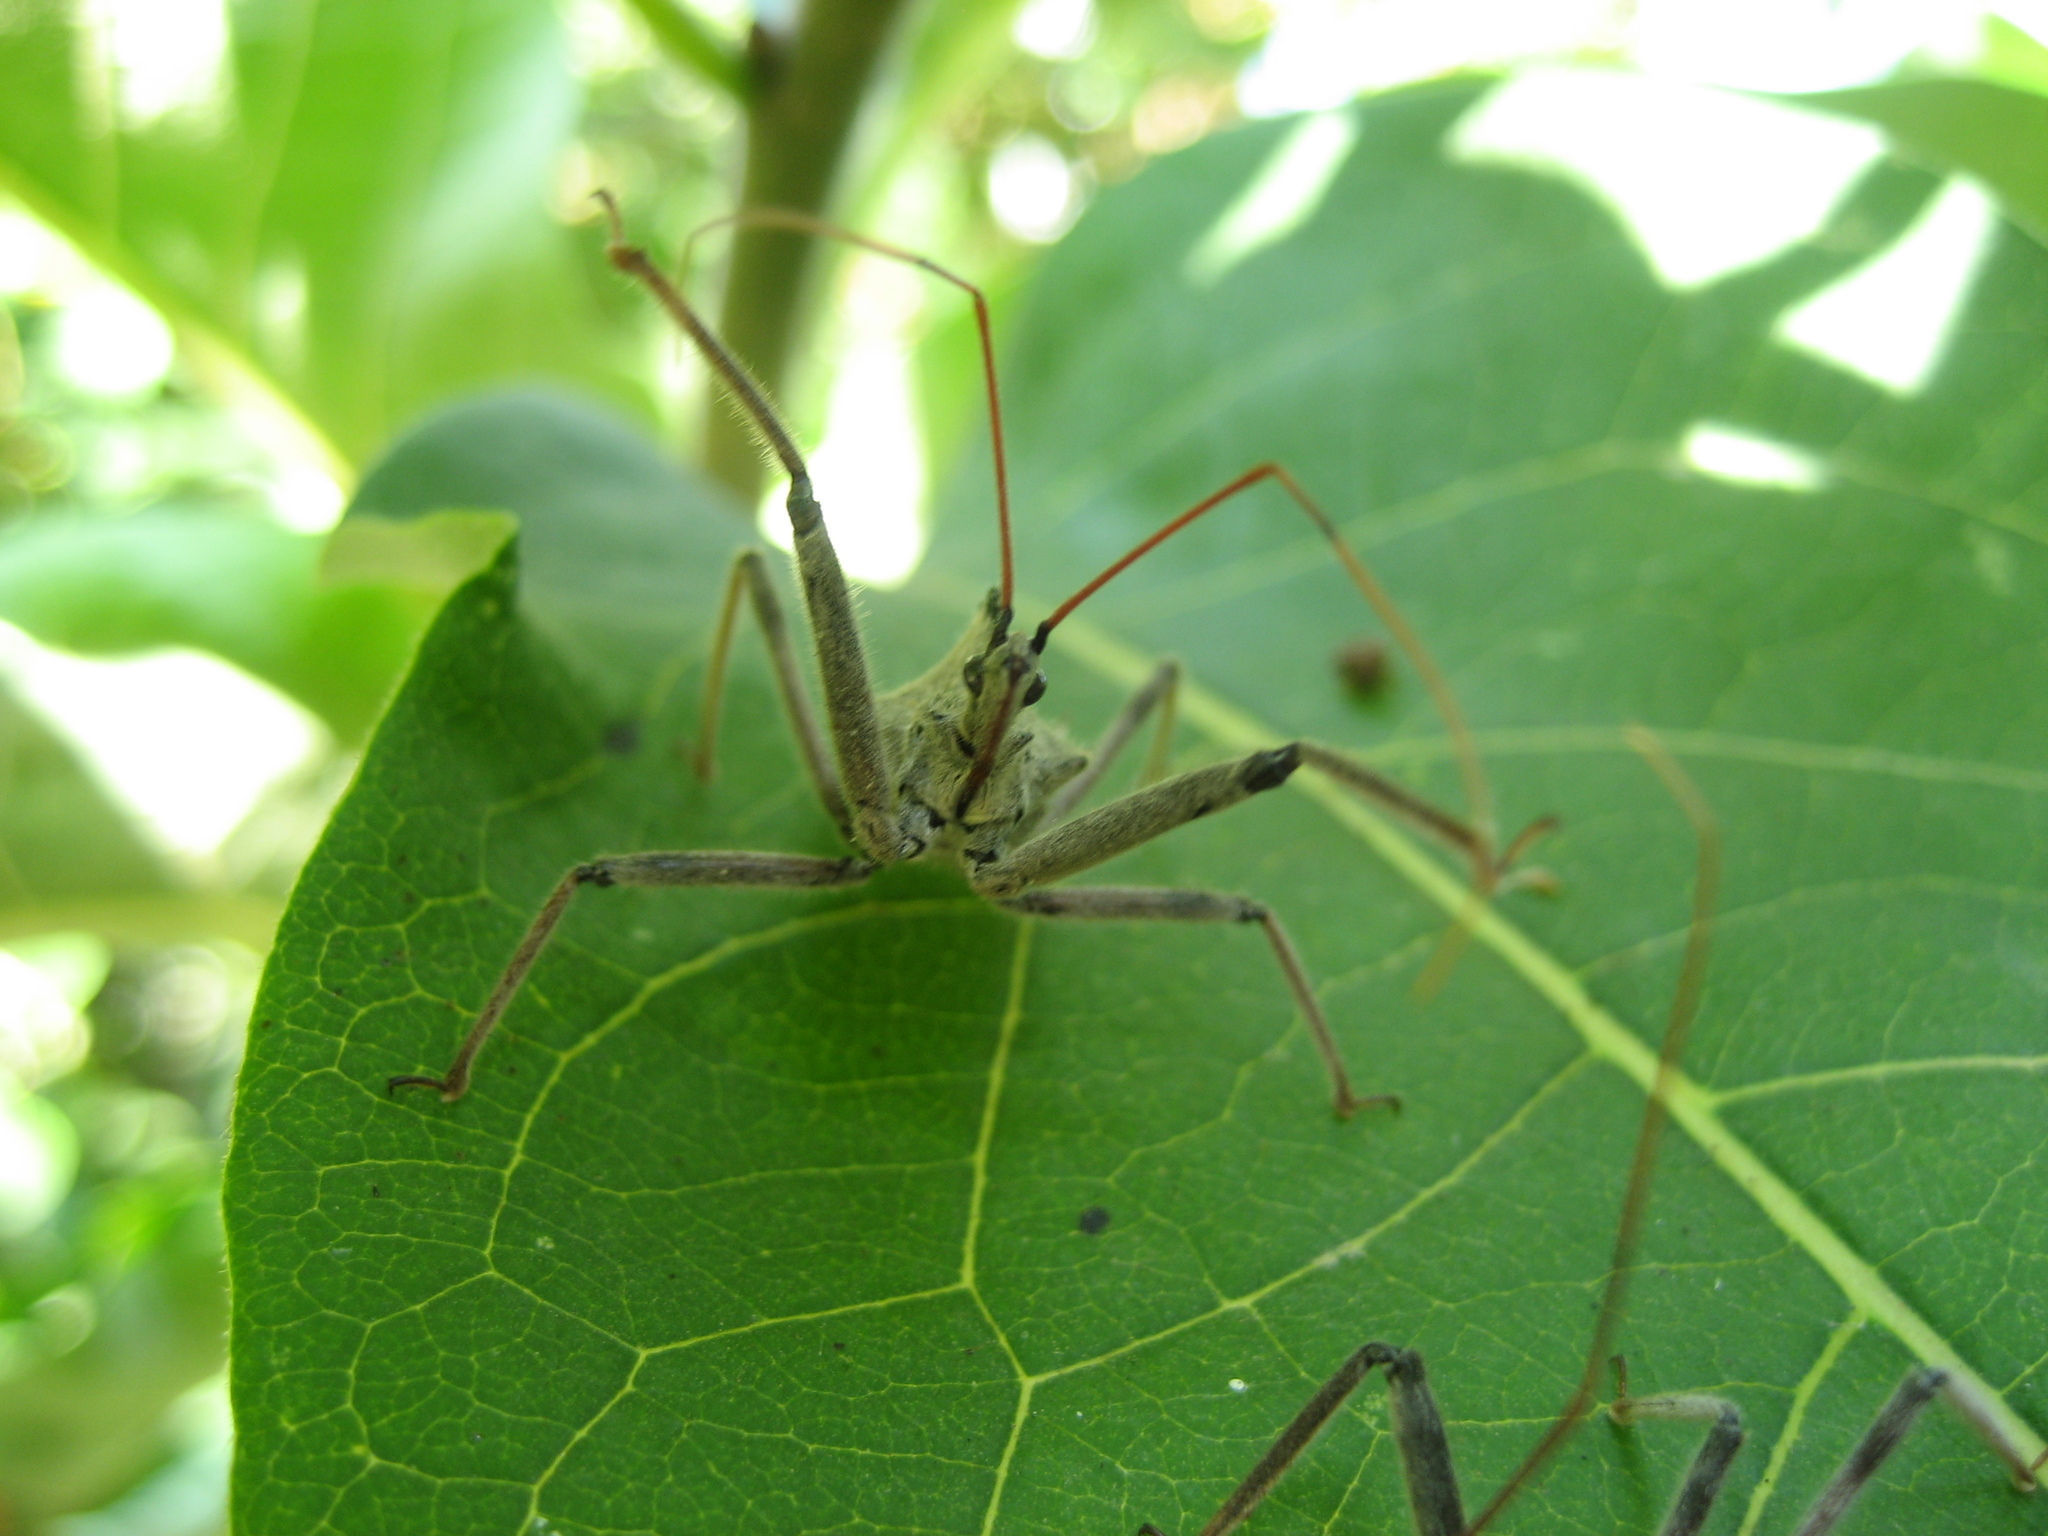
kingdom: Animalia
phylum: Arthropoda
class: Insecta
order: Hemiptera
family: Reduviidae
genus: Arilus
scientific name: Arilus cristatus
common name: North american wheel bug
